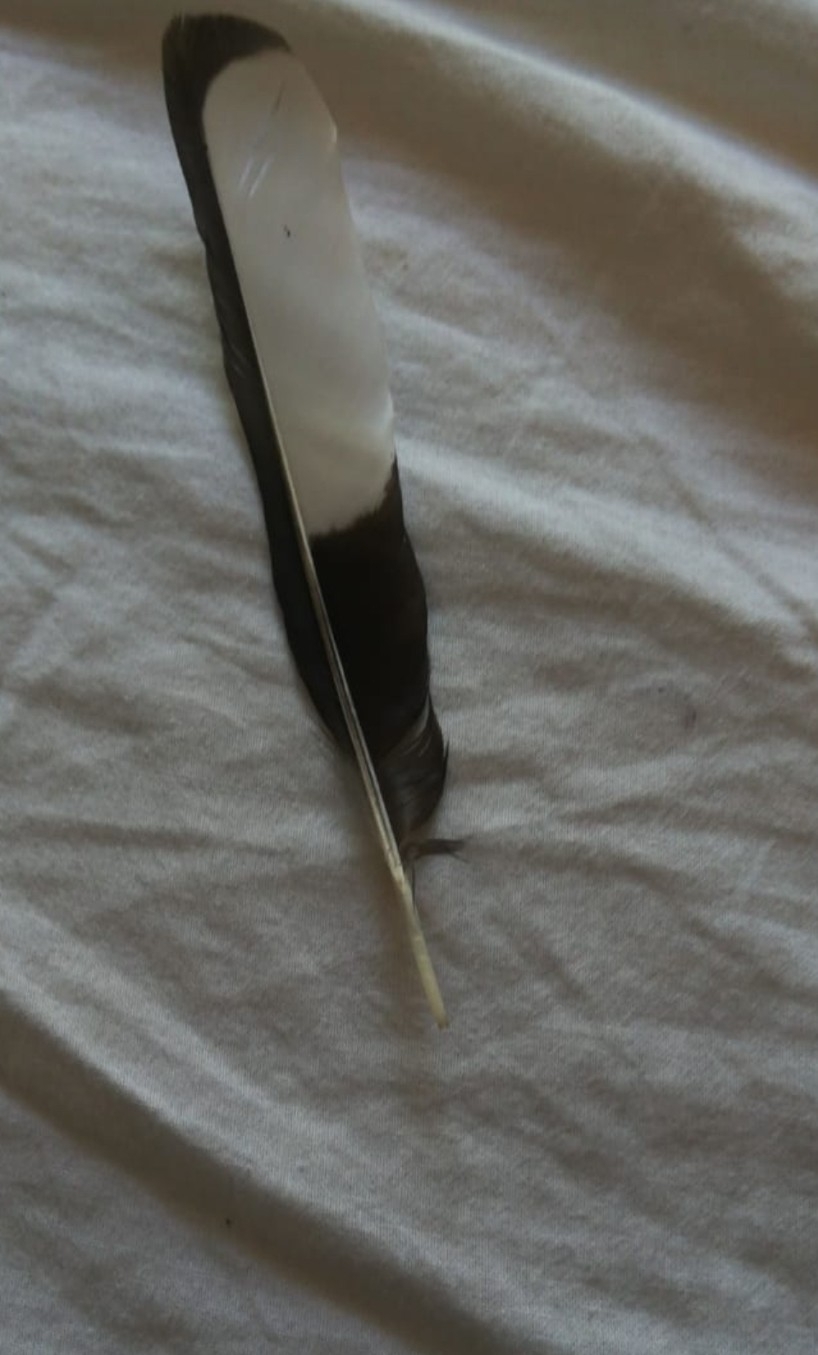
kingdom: Animalia
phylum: Chordata
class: Aves
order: Passeriformes
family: Corvidae
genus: Pica
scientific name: Pica pica
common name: Eurasian magpie
